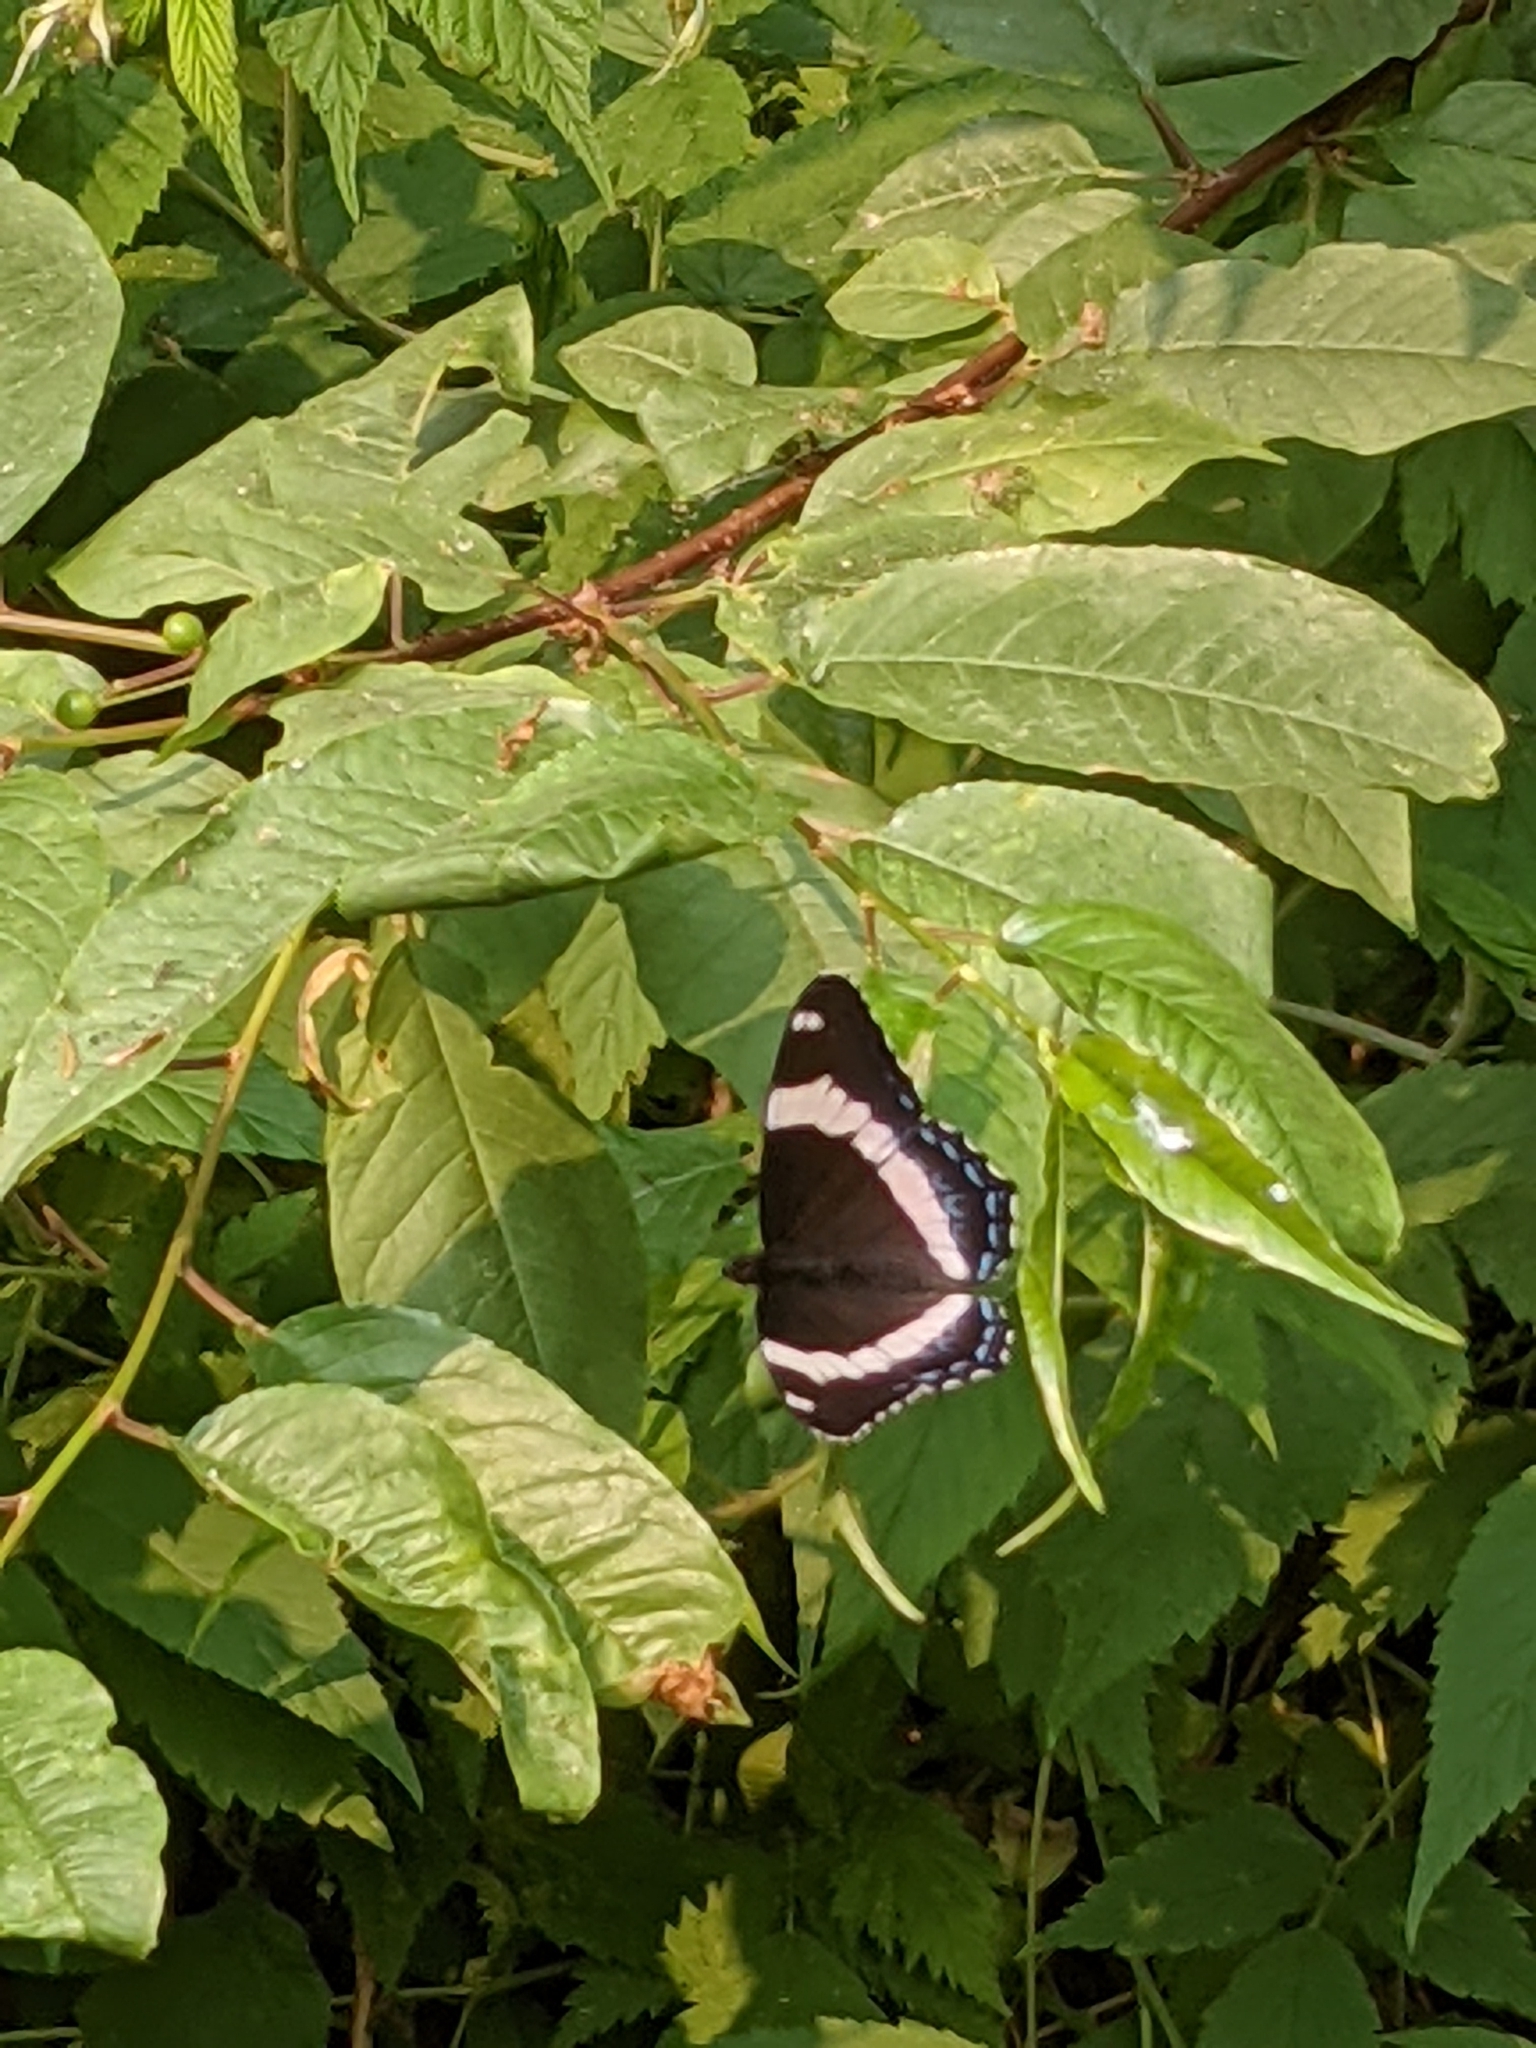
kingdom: Animalia
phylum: Arthropoda
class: Insecta
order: Lepidoptera
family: Nymphalidae
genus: Limenitis
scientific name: Limenitis arthemis
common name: Red-spotted admiral
